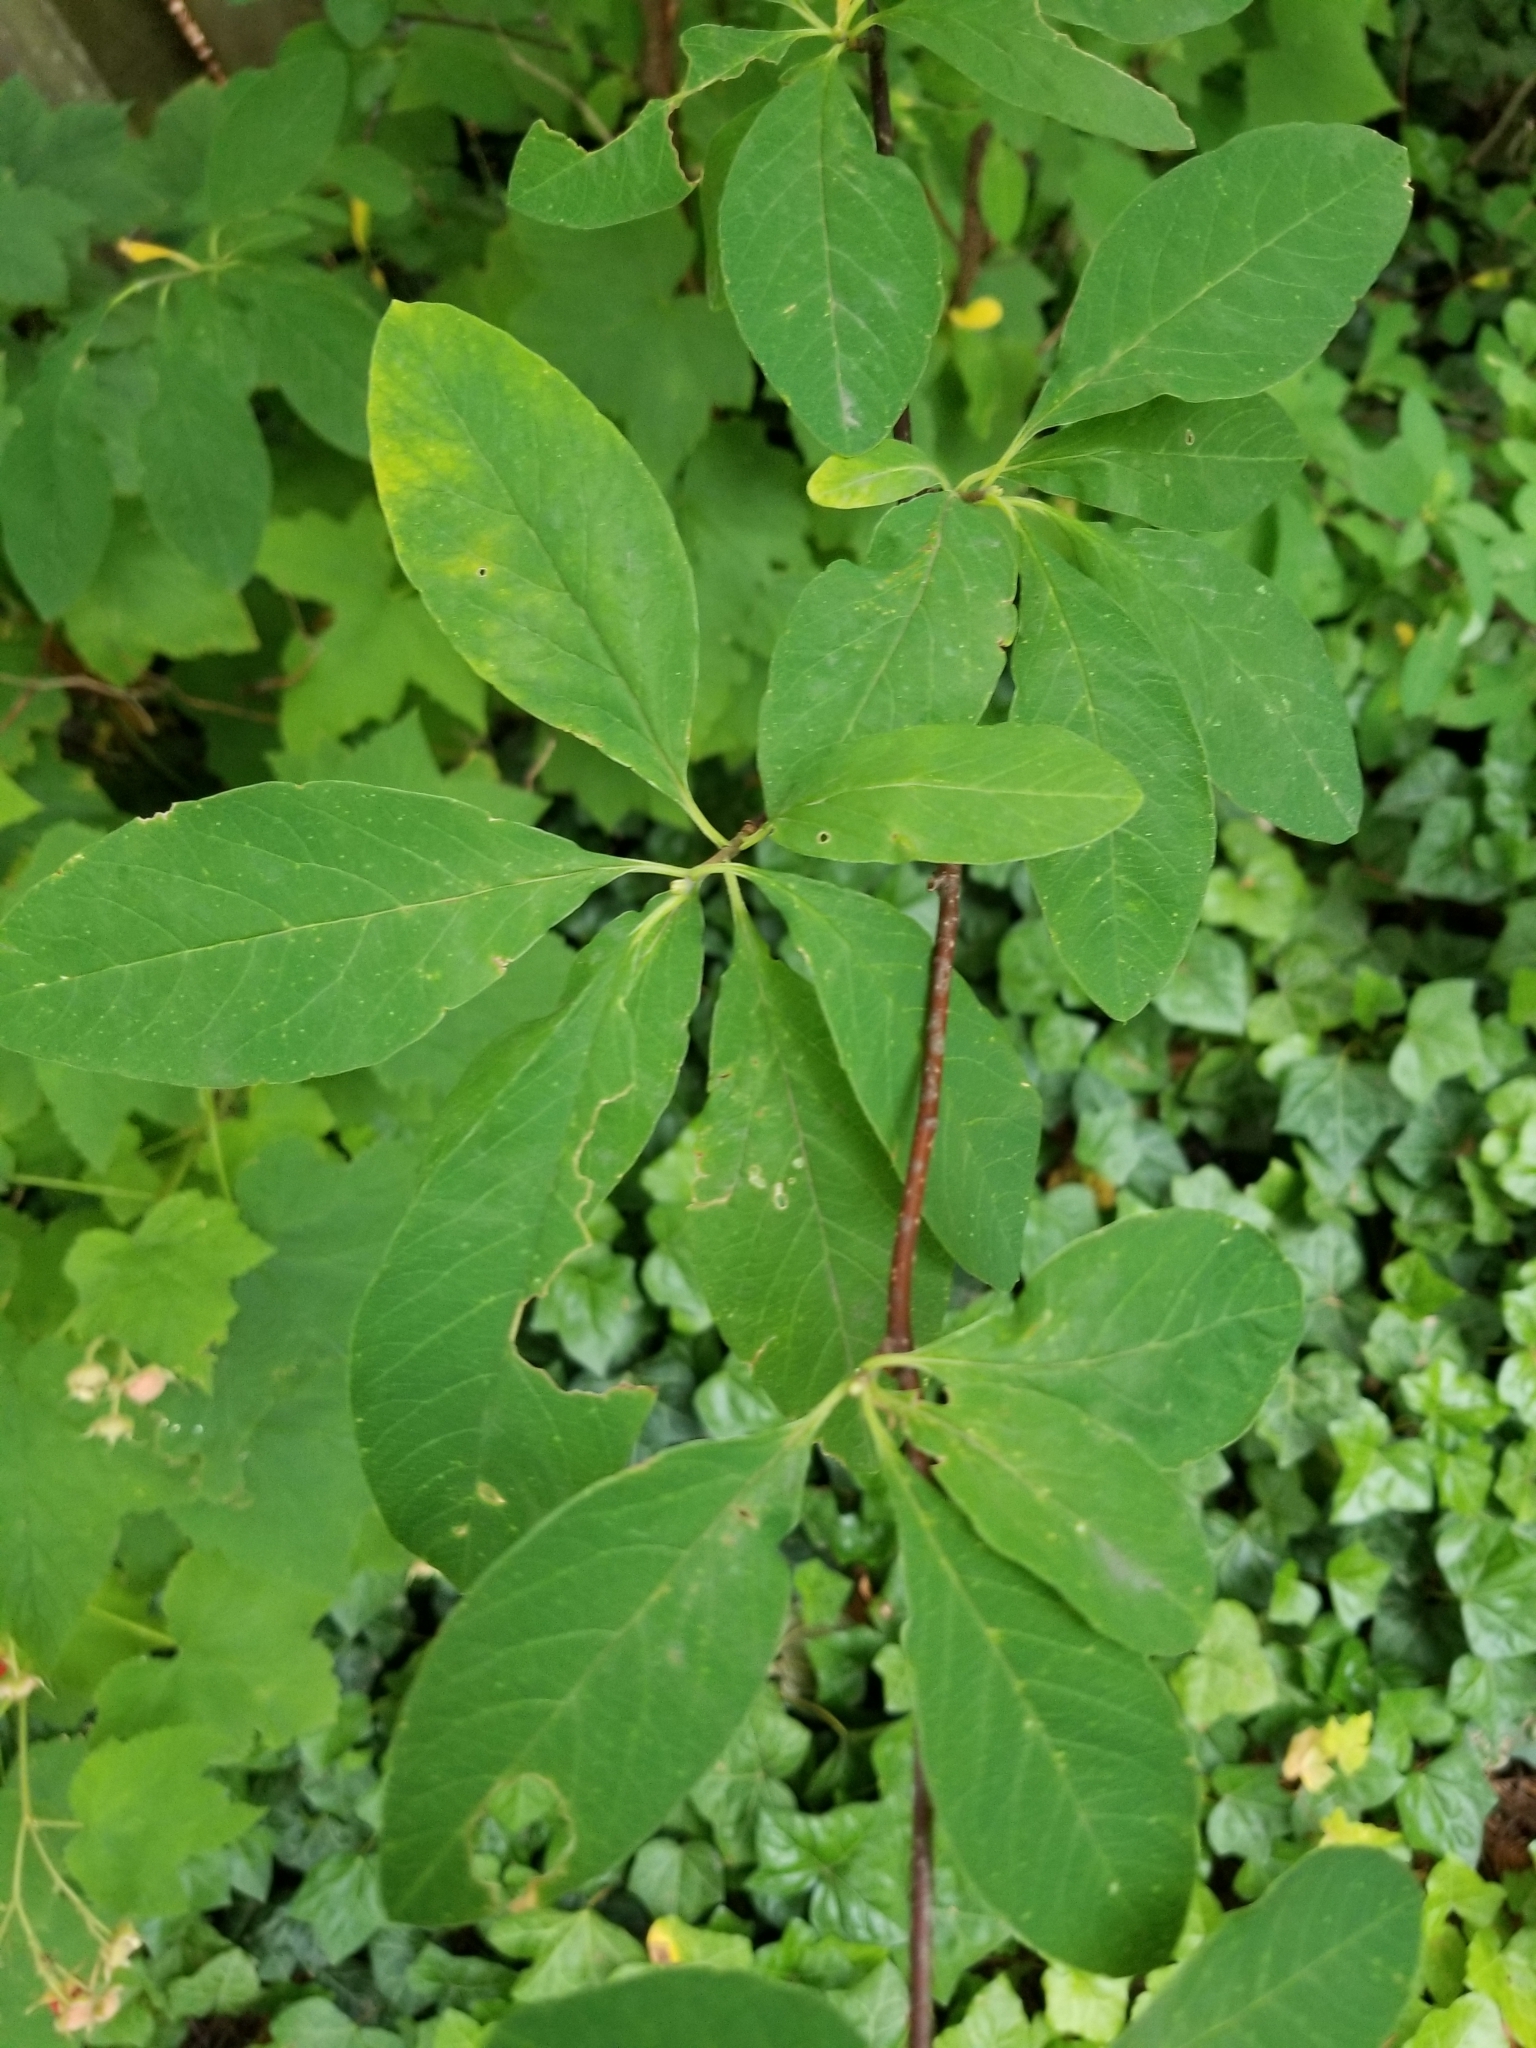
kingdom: Plantae
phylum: Tracheophyta
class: Magnoliopsida
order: Rosales
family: Rosaceae
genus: Oemleria
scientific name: Oemleria cerasiformis
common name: Osoberry
